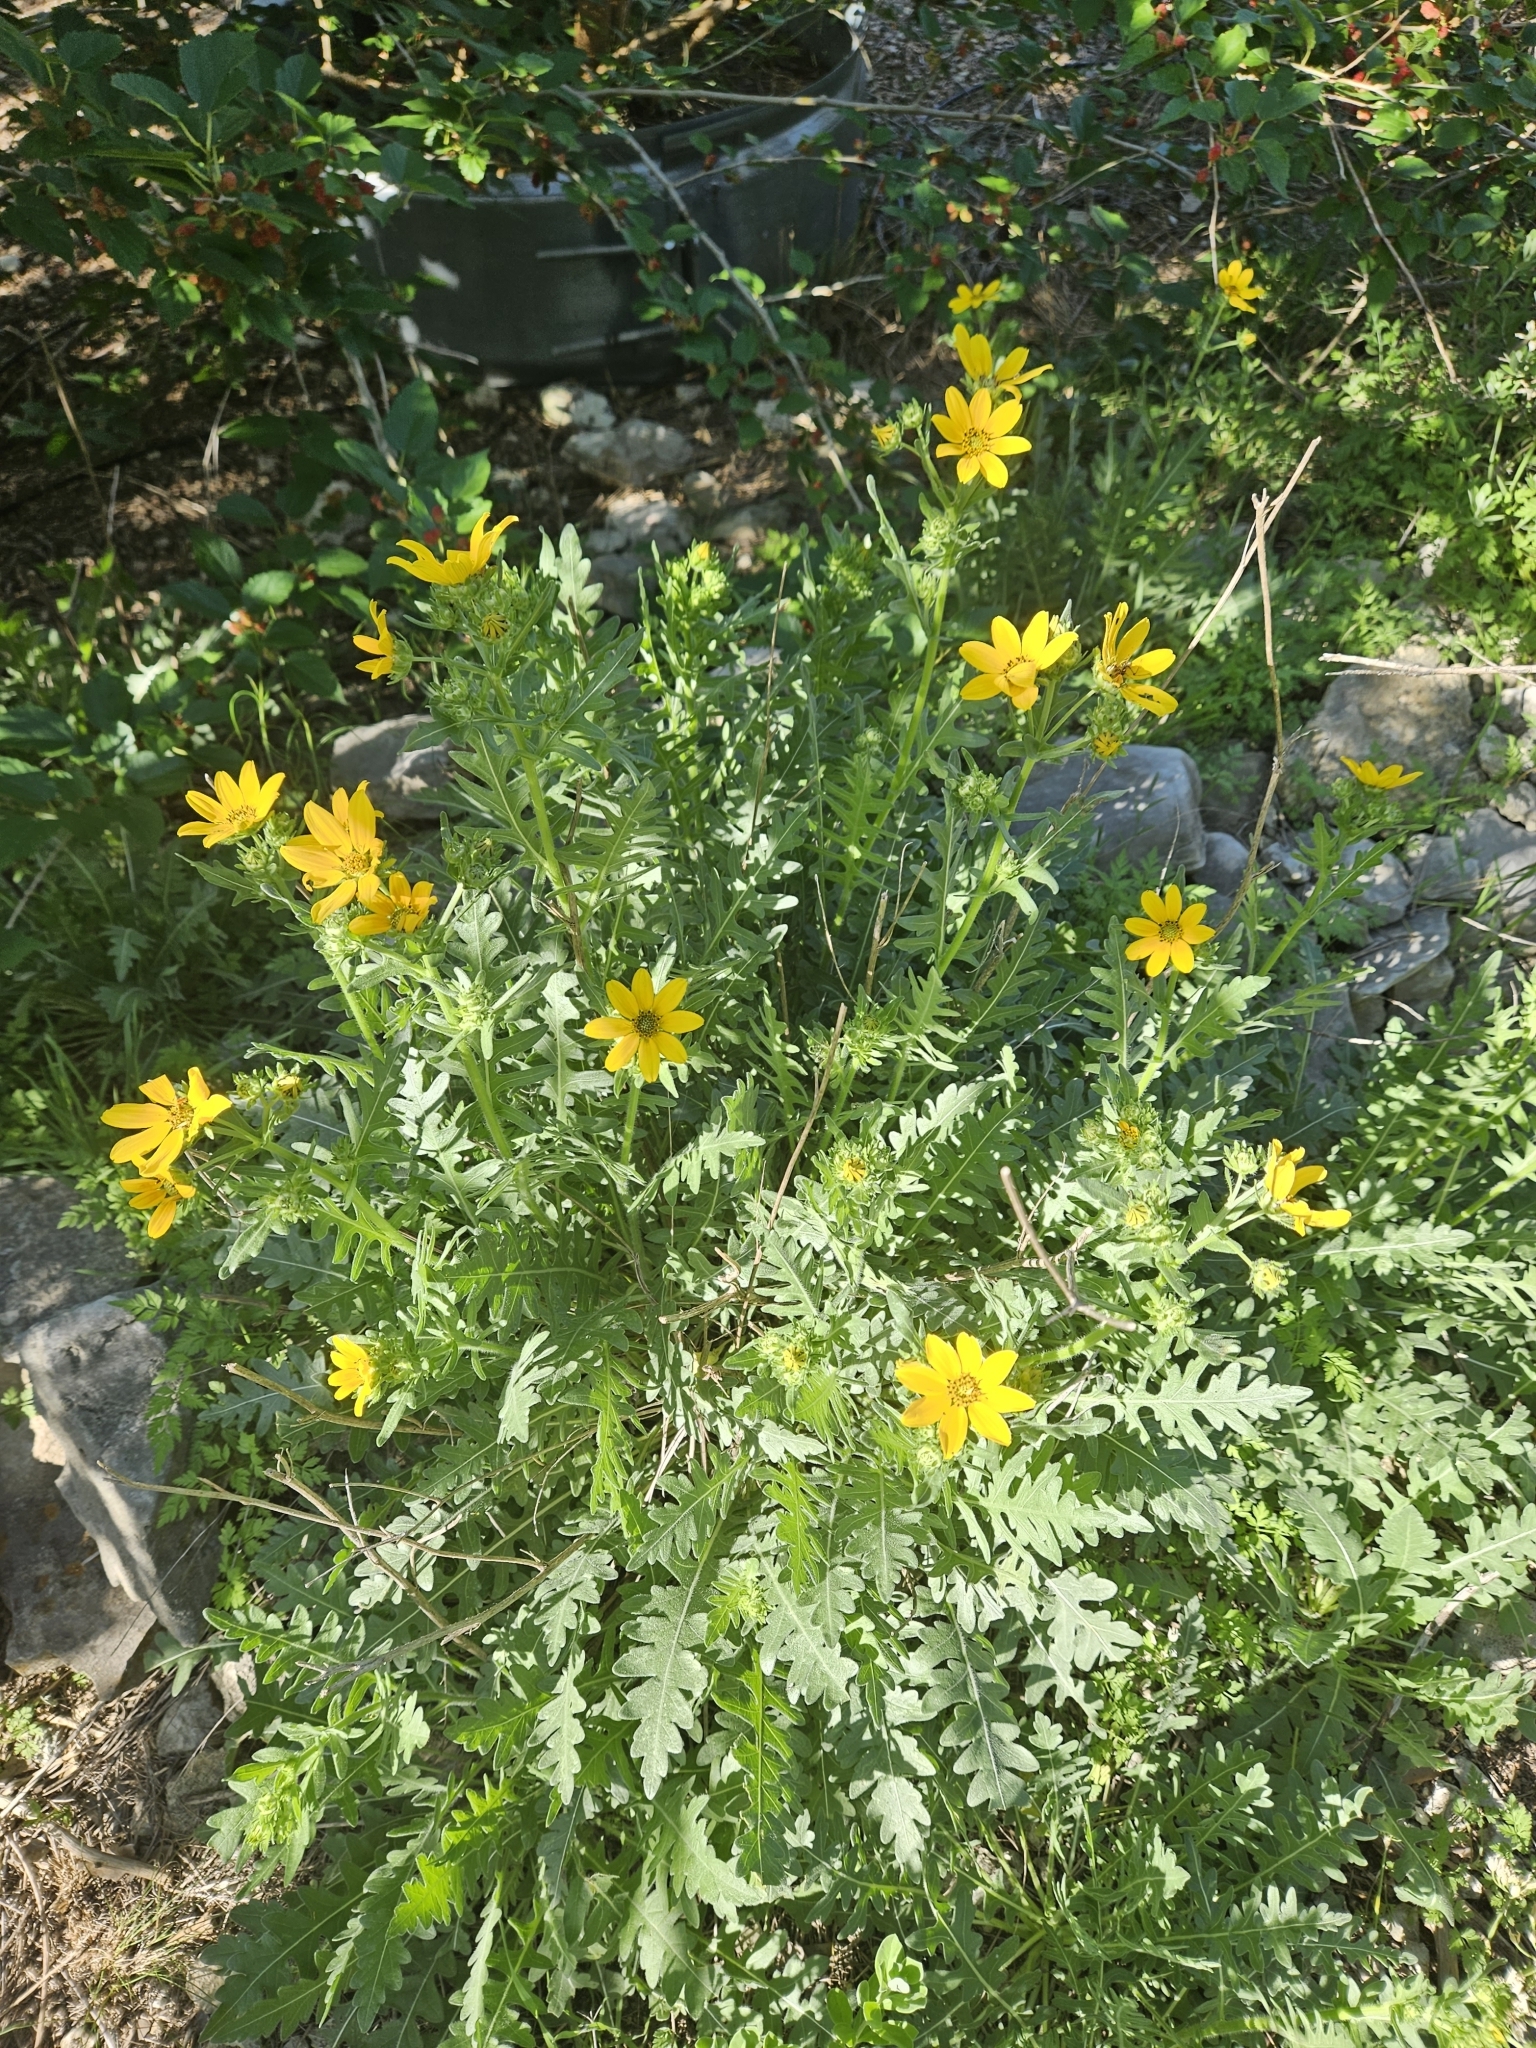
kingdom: Plantae
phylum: Tracheophyta
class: Magnoliopsida
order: Asterales
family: Asteraceae
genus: Engelmannia
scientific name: Engelmannia peristenia
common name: Engelmann's daisy
